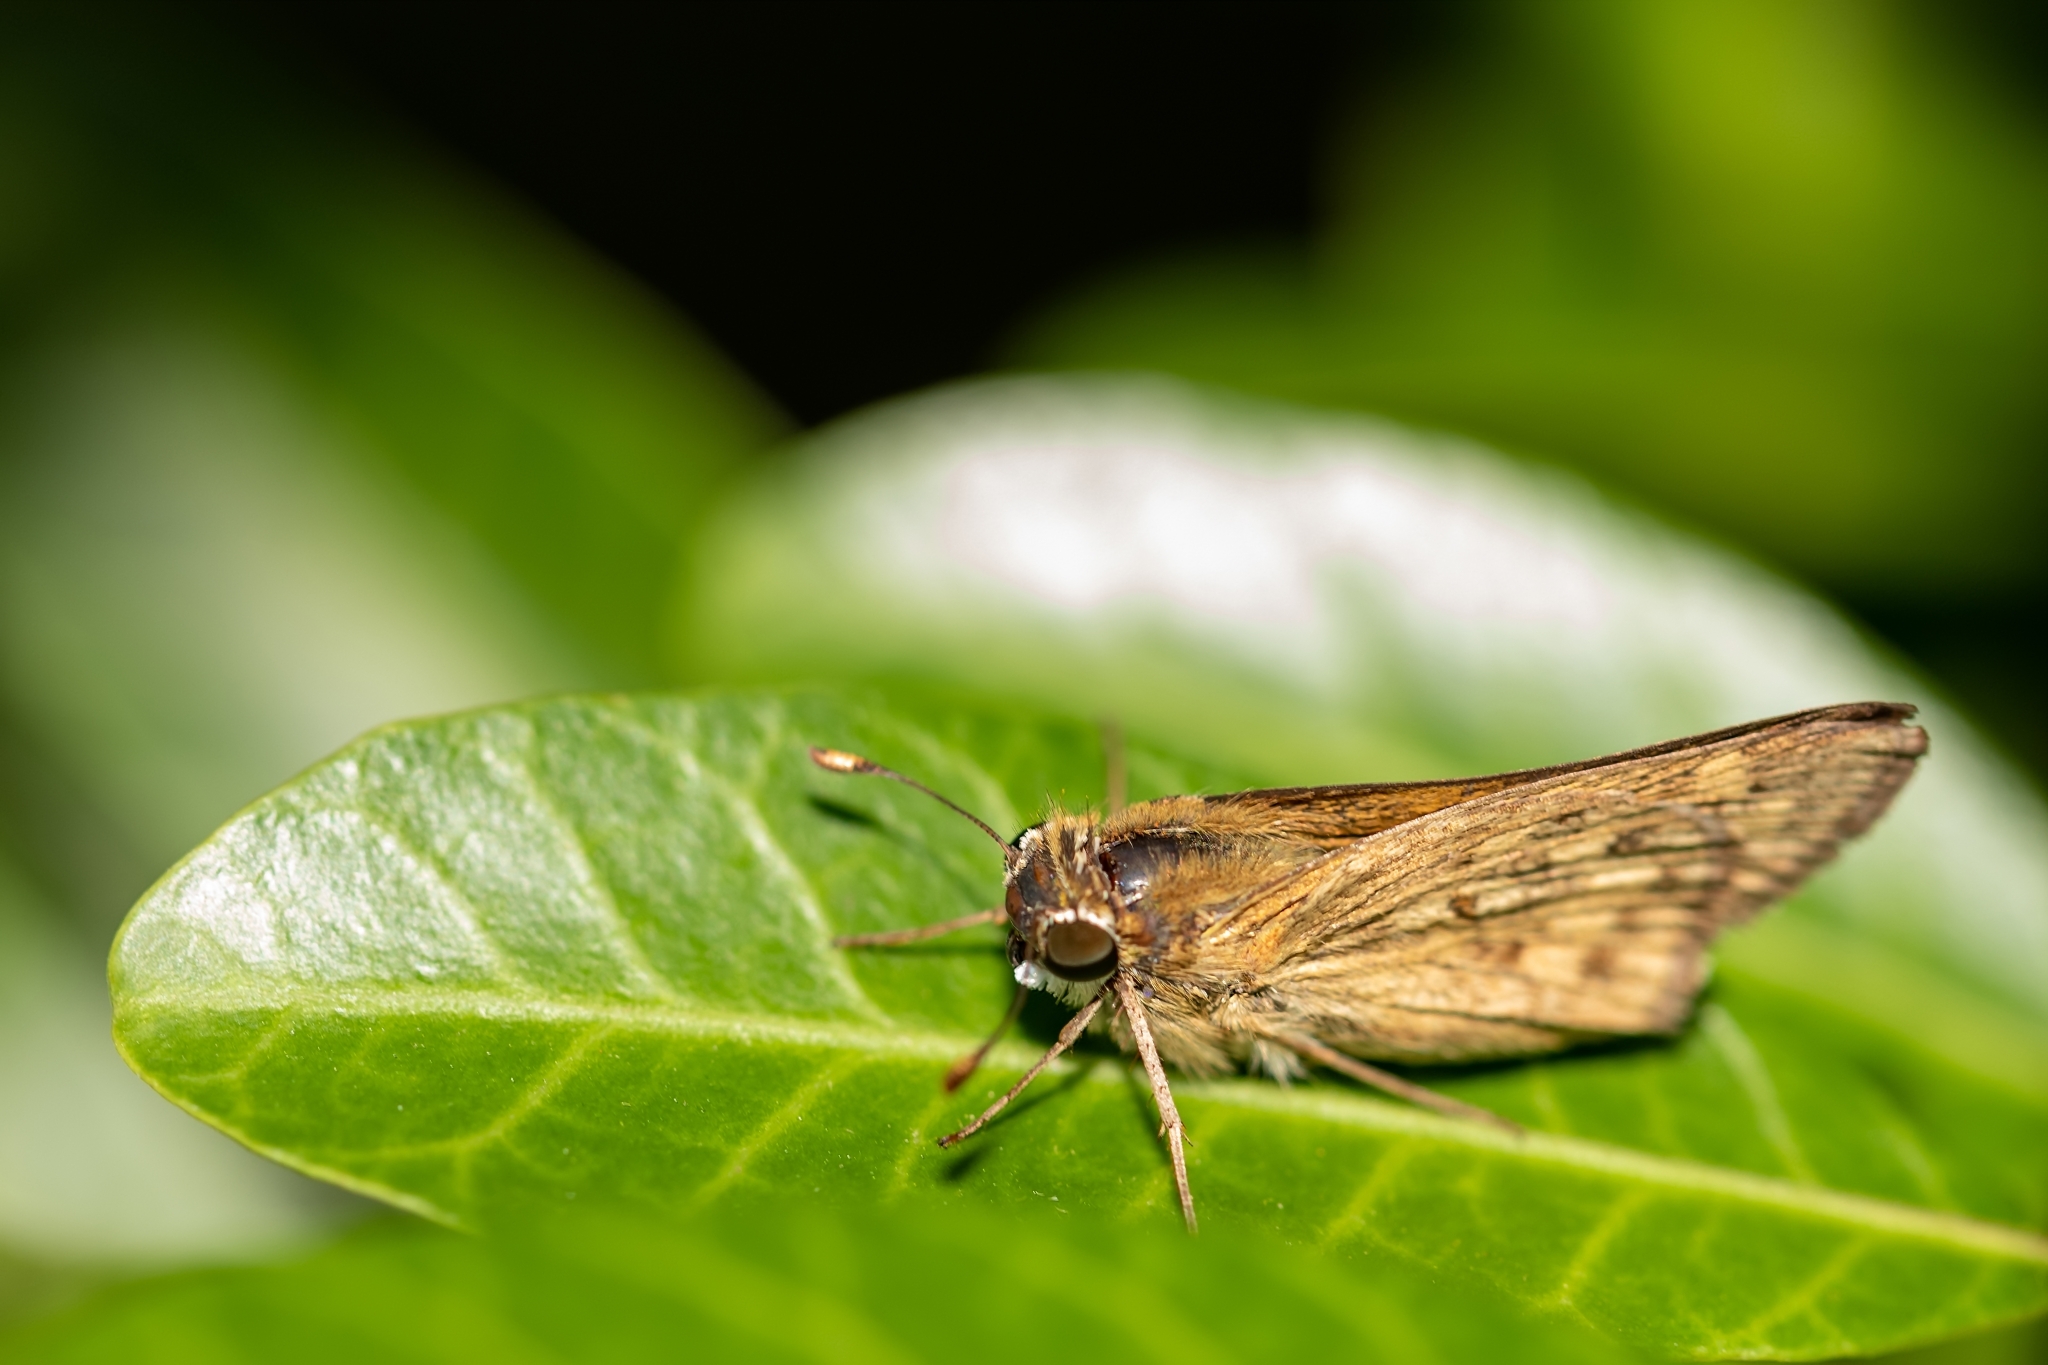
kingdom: Animalia
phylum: Arthropoda
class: Insecta
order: Lepidoptera
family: Hesperiidae
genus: Hylephila
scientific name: Hylephila phyleus
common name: Fiery skipper
